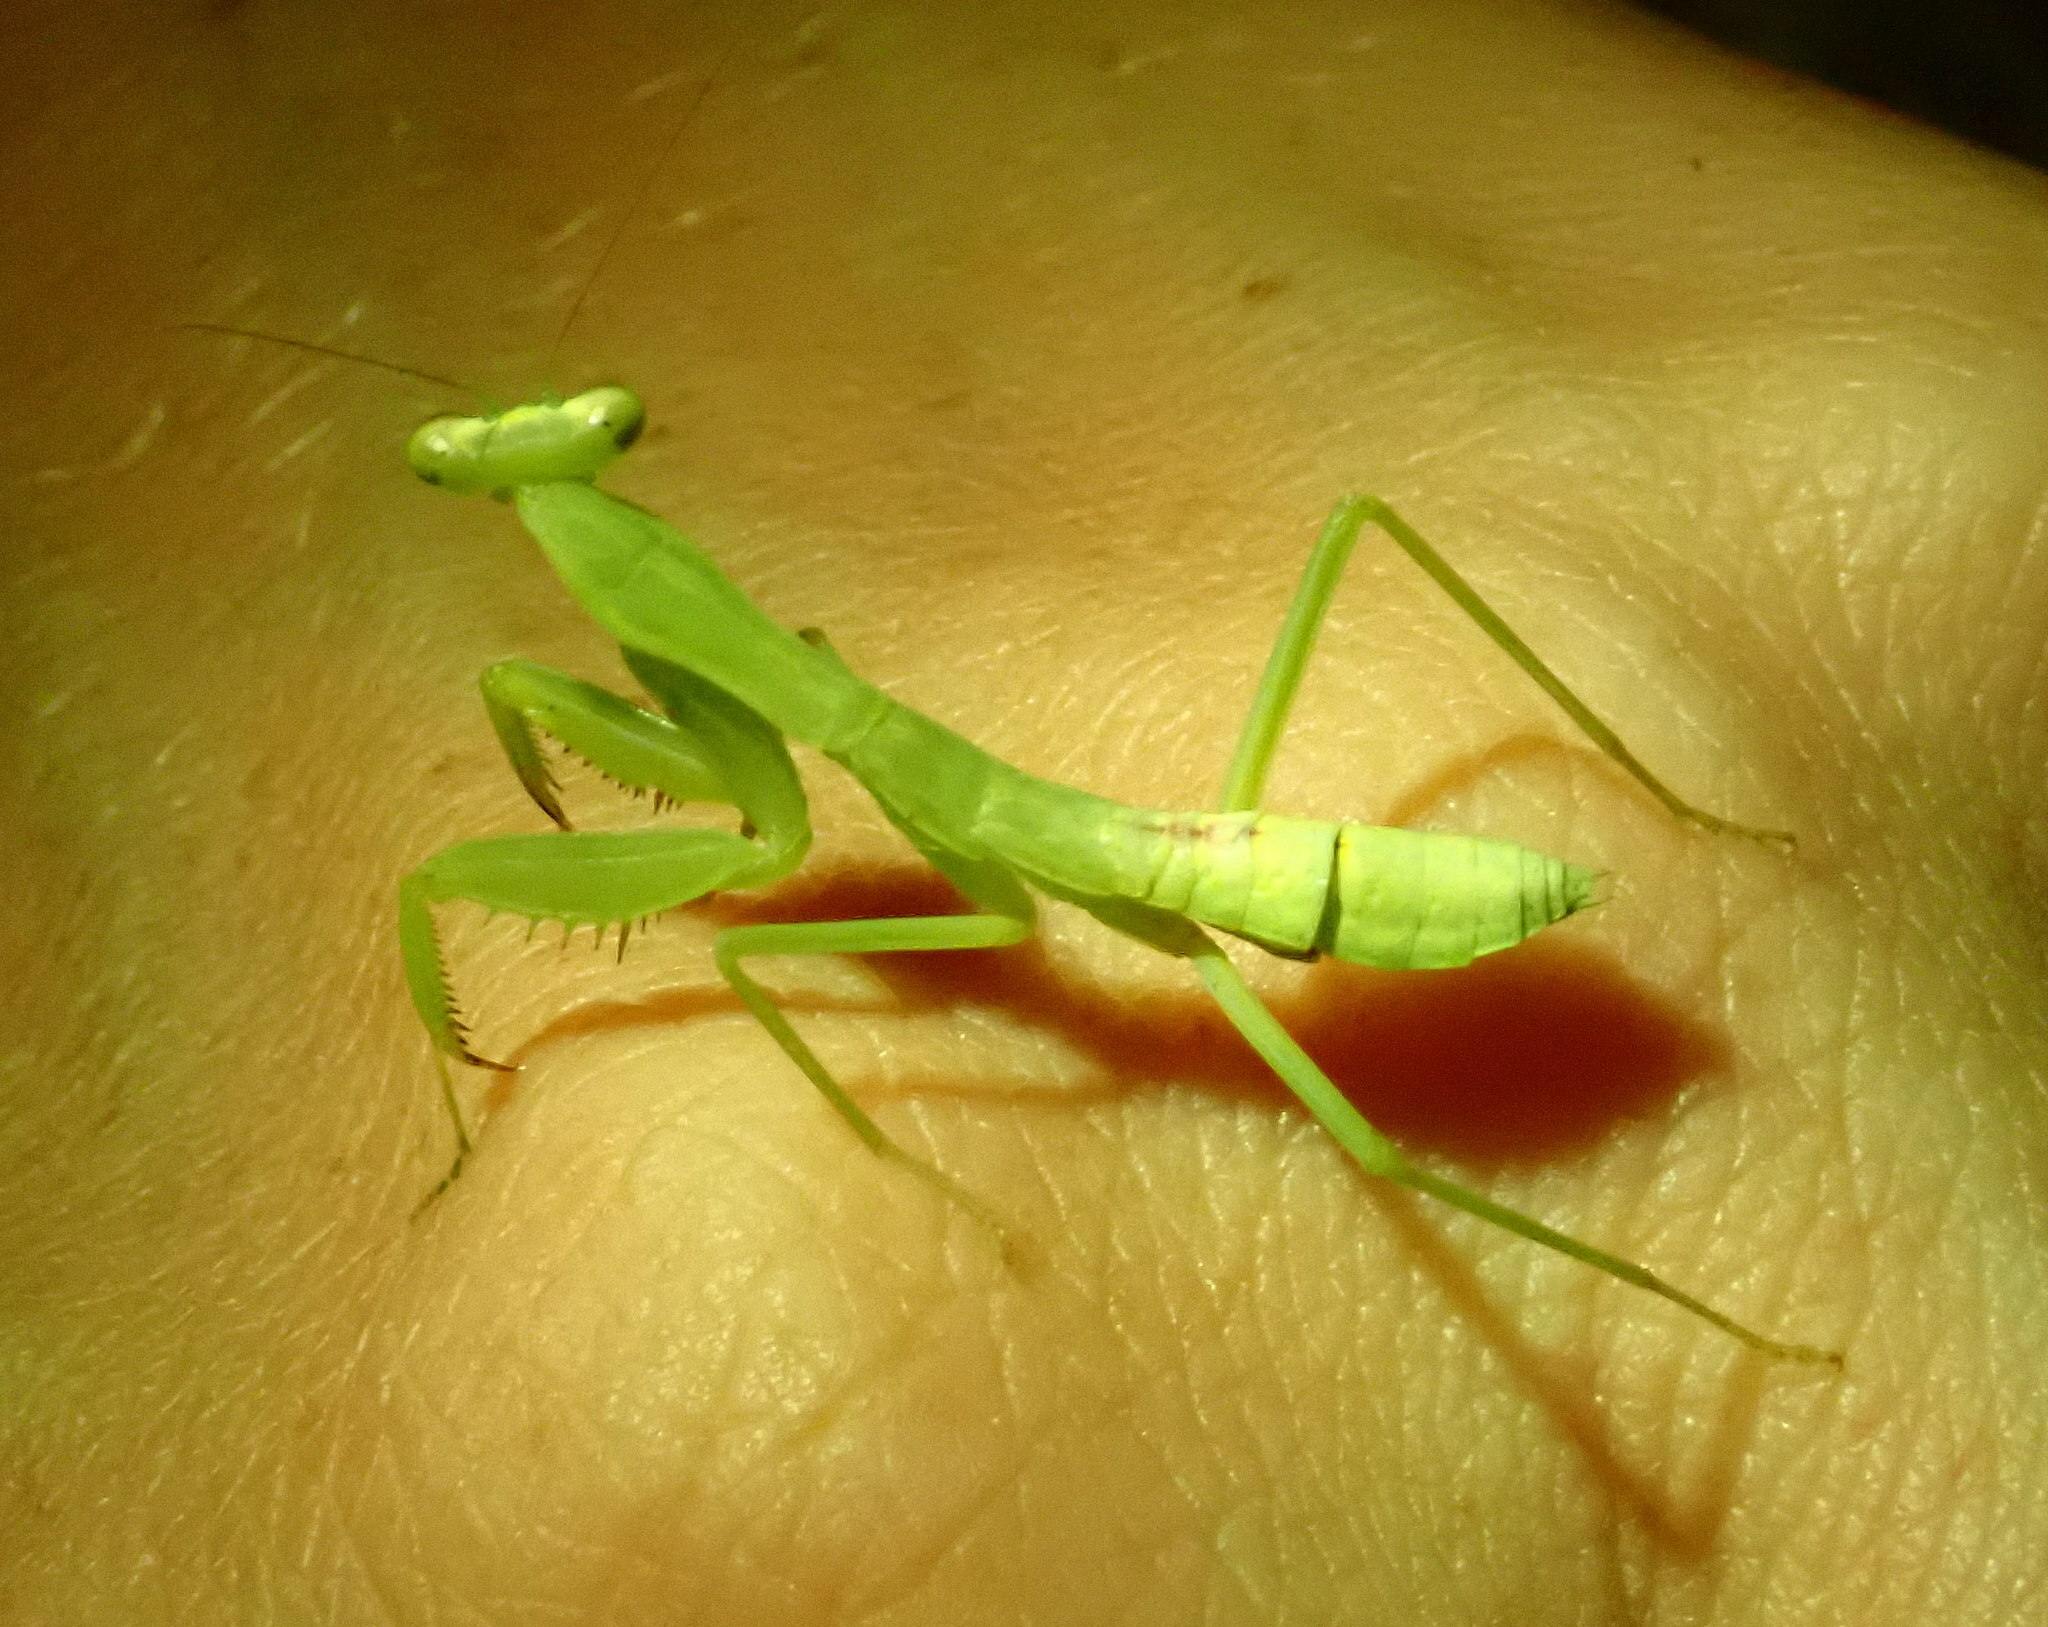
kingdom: Animalia
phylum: Arthropoda
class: Insecta
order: Mantodea
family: Mantidae
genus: Hierodula
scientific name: Hierodula patellifera
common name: Asian mantis
